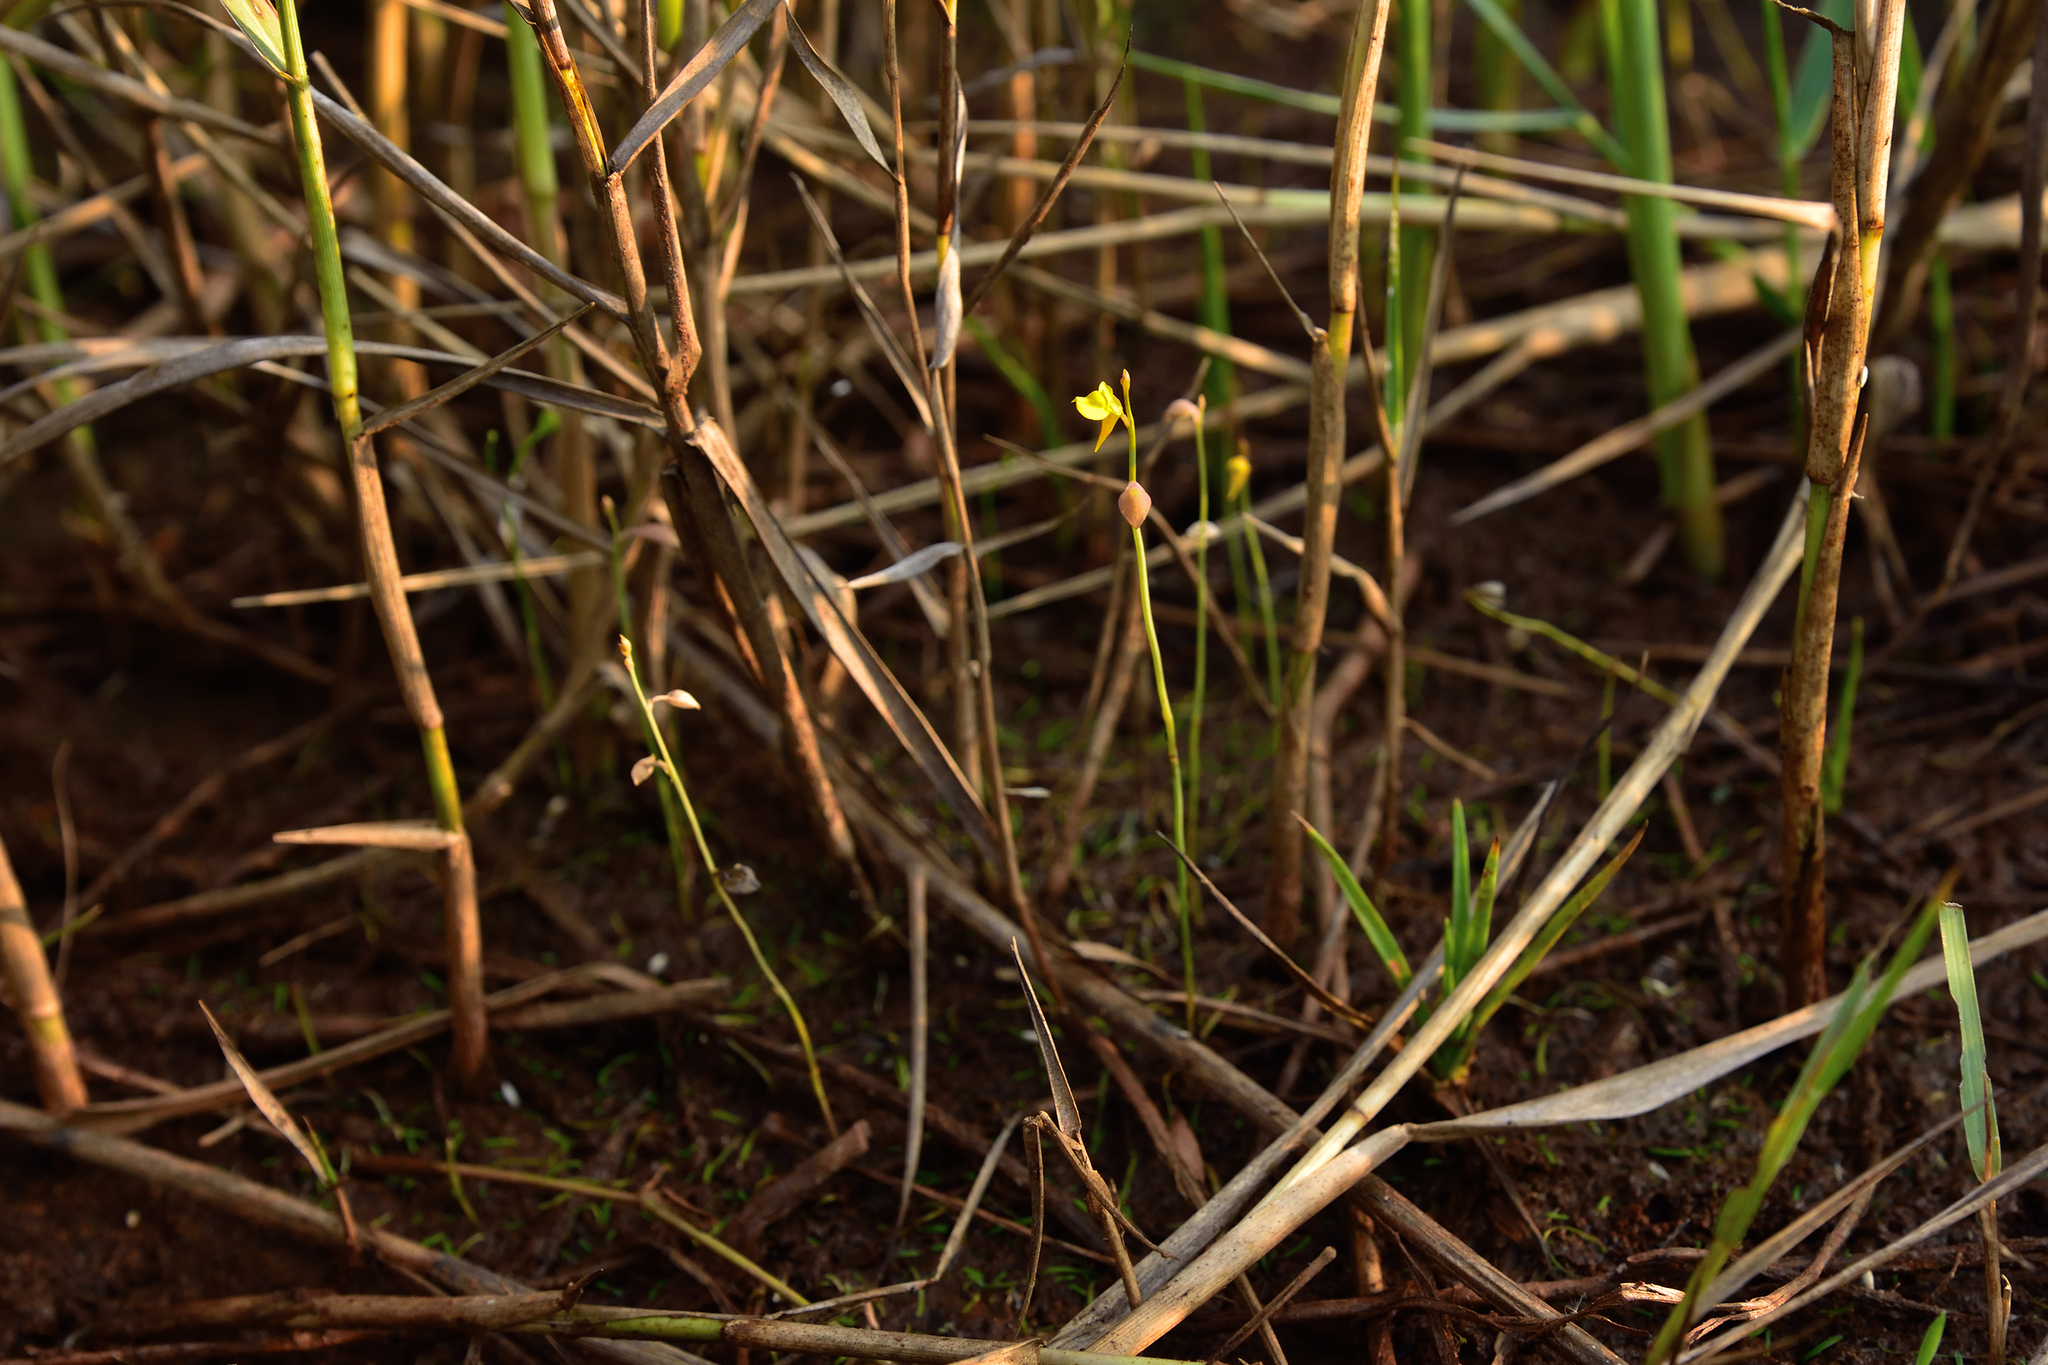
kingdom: Plantae
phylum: Tracheophyta
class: Magnoliopsida
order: Lamiales
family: Lentibulariaceae
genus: Utricularia
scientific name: Utricularia bifida
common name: Bifid bladderwort
